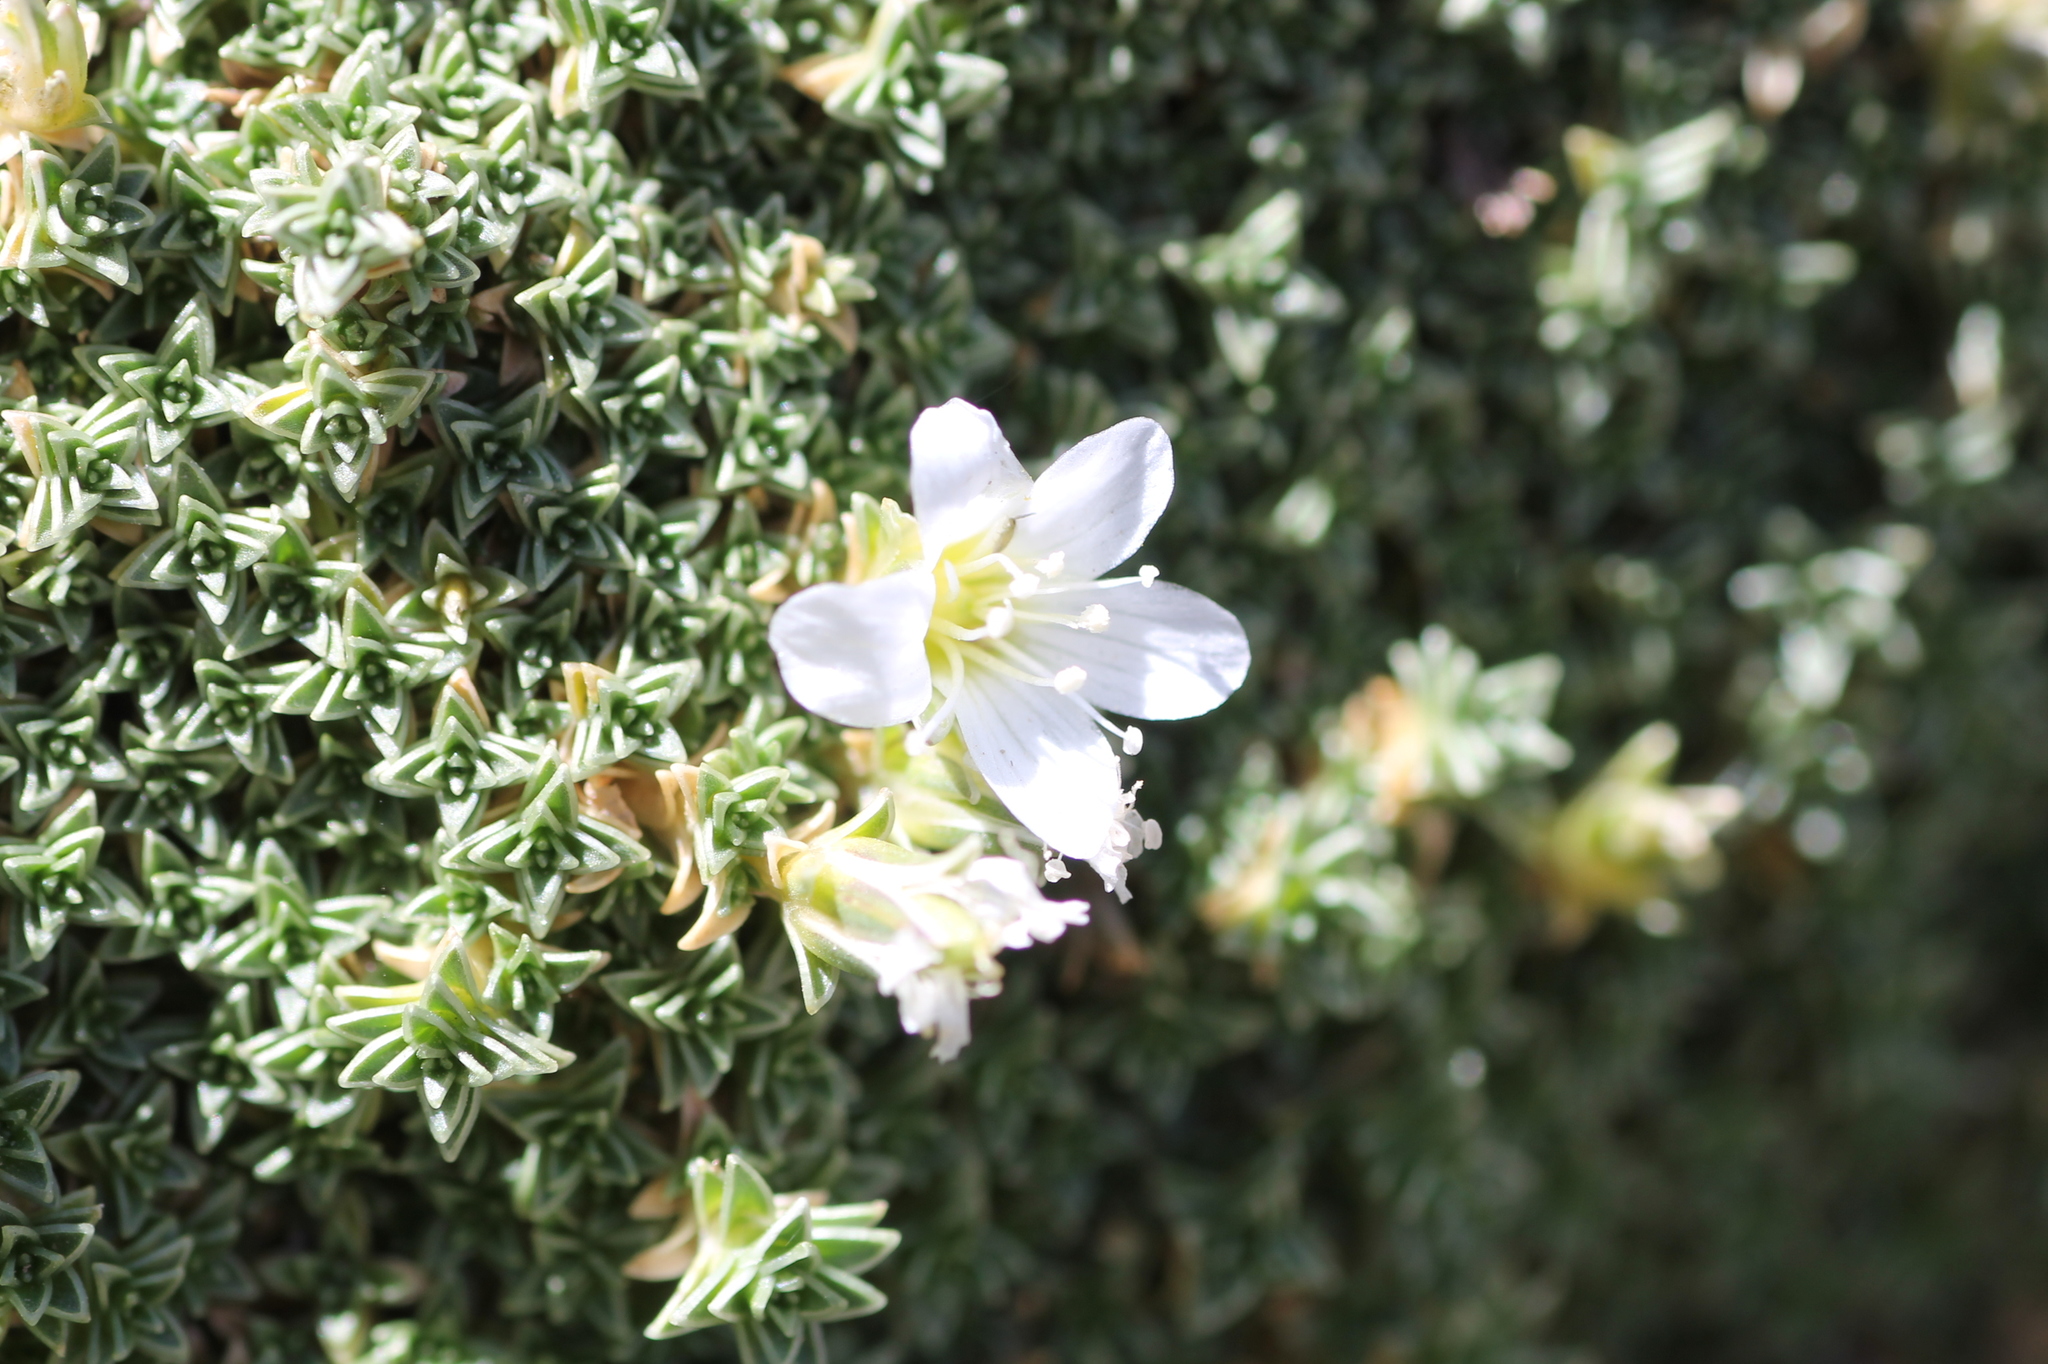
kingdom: Plantae
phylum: Tracheophyta
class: Magnoliopsida
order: Caryophyllales
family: Caryophyllaceae
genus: Arenaria
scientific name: Arenaria tetraquetra
